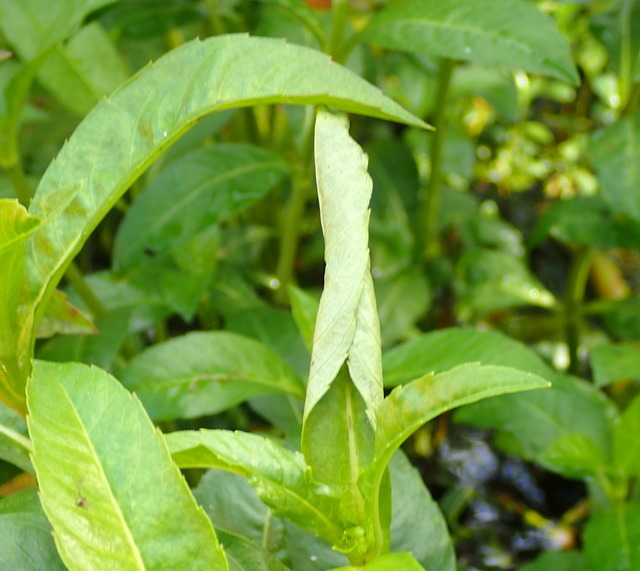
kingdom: Animalia
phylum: Arthropoda
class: Insecta
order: Coleoptera
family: Chrysomelidae
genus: Agasicles
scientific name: Agasicles hygrophila
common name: Alligatorweed flea beetle
